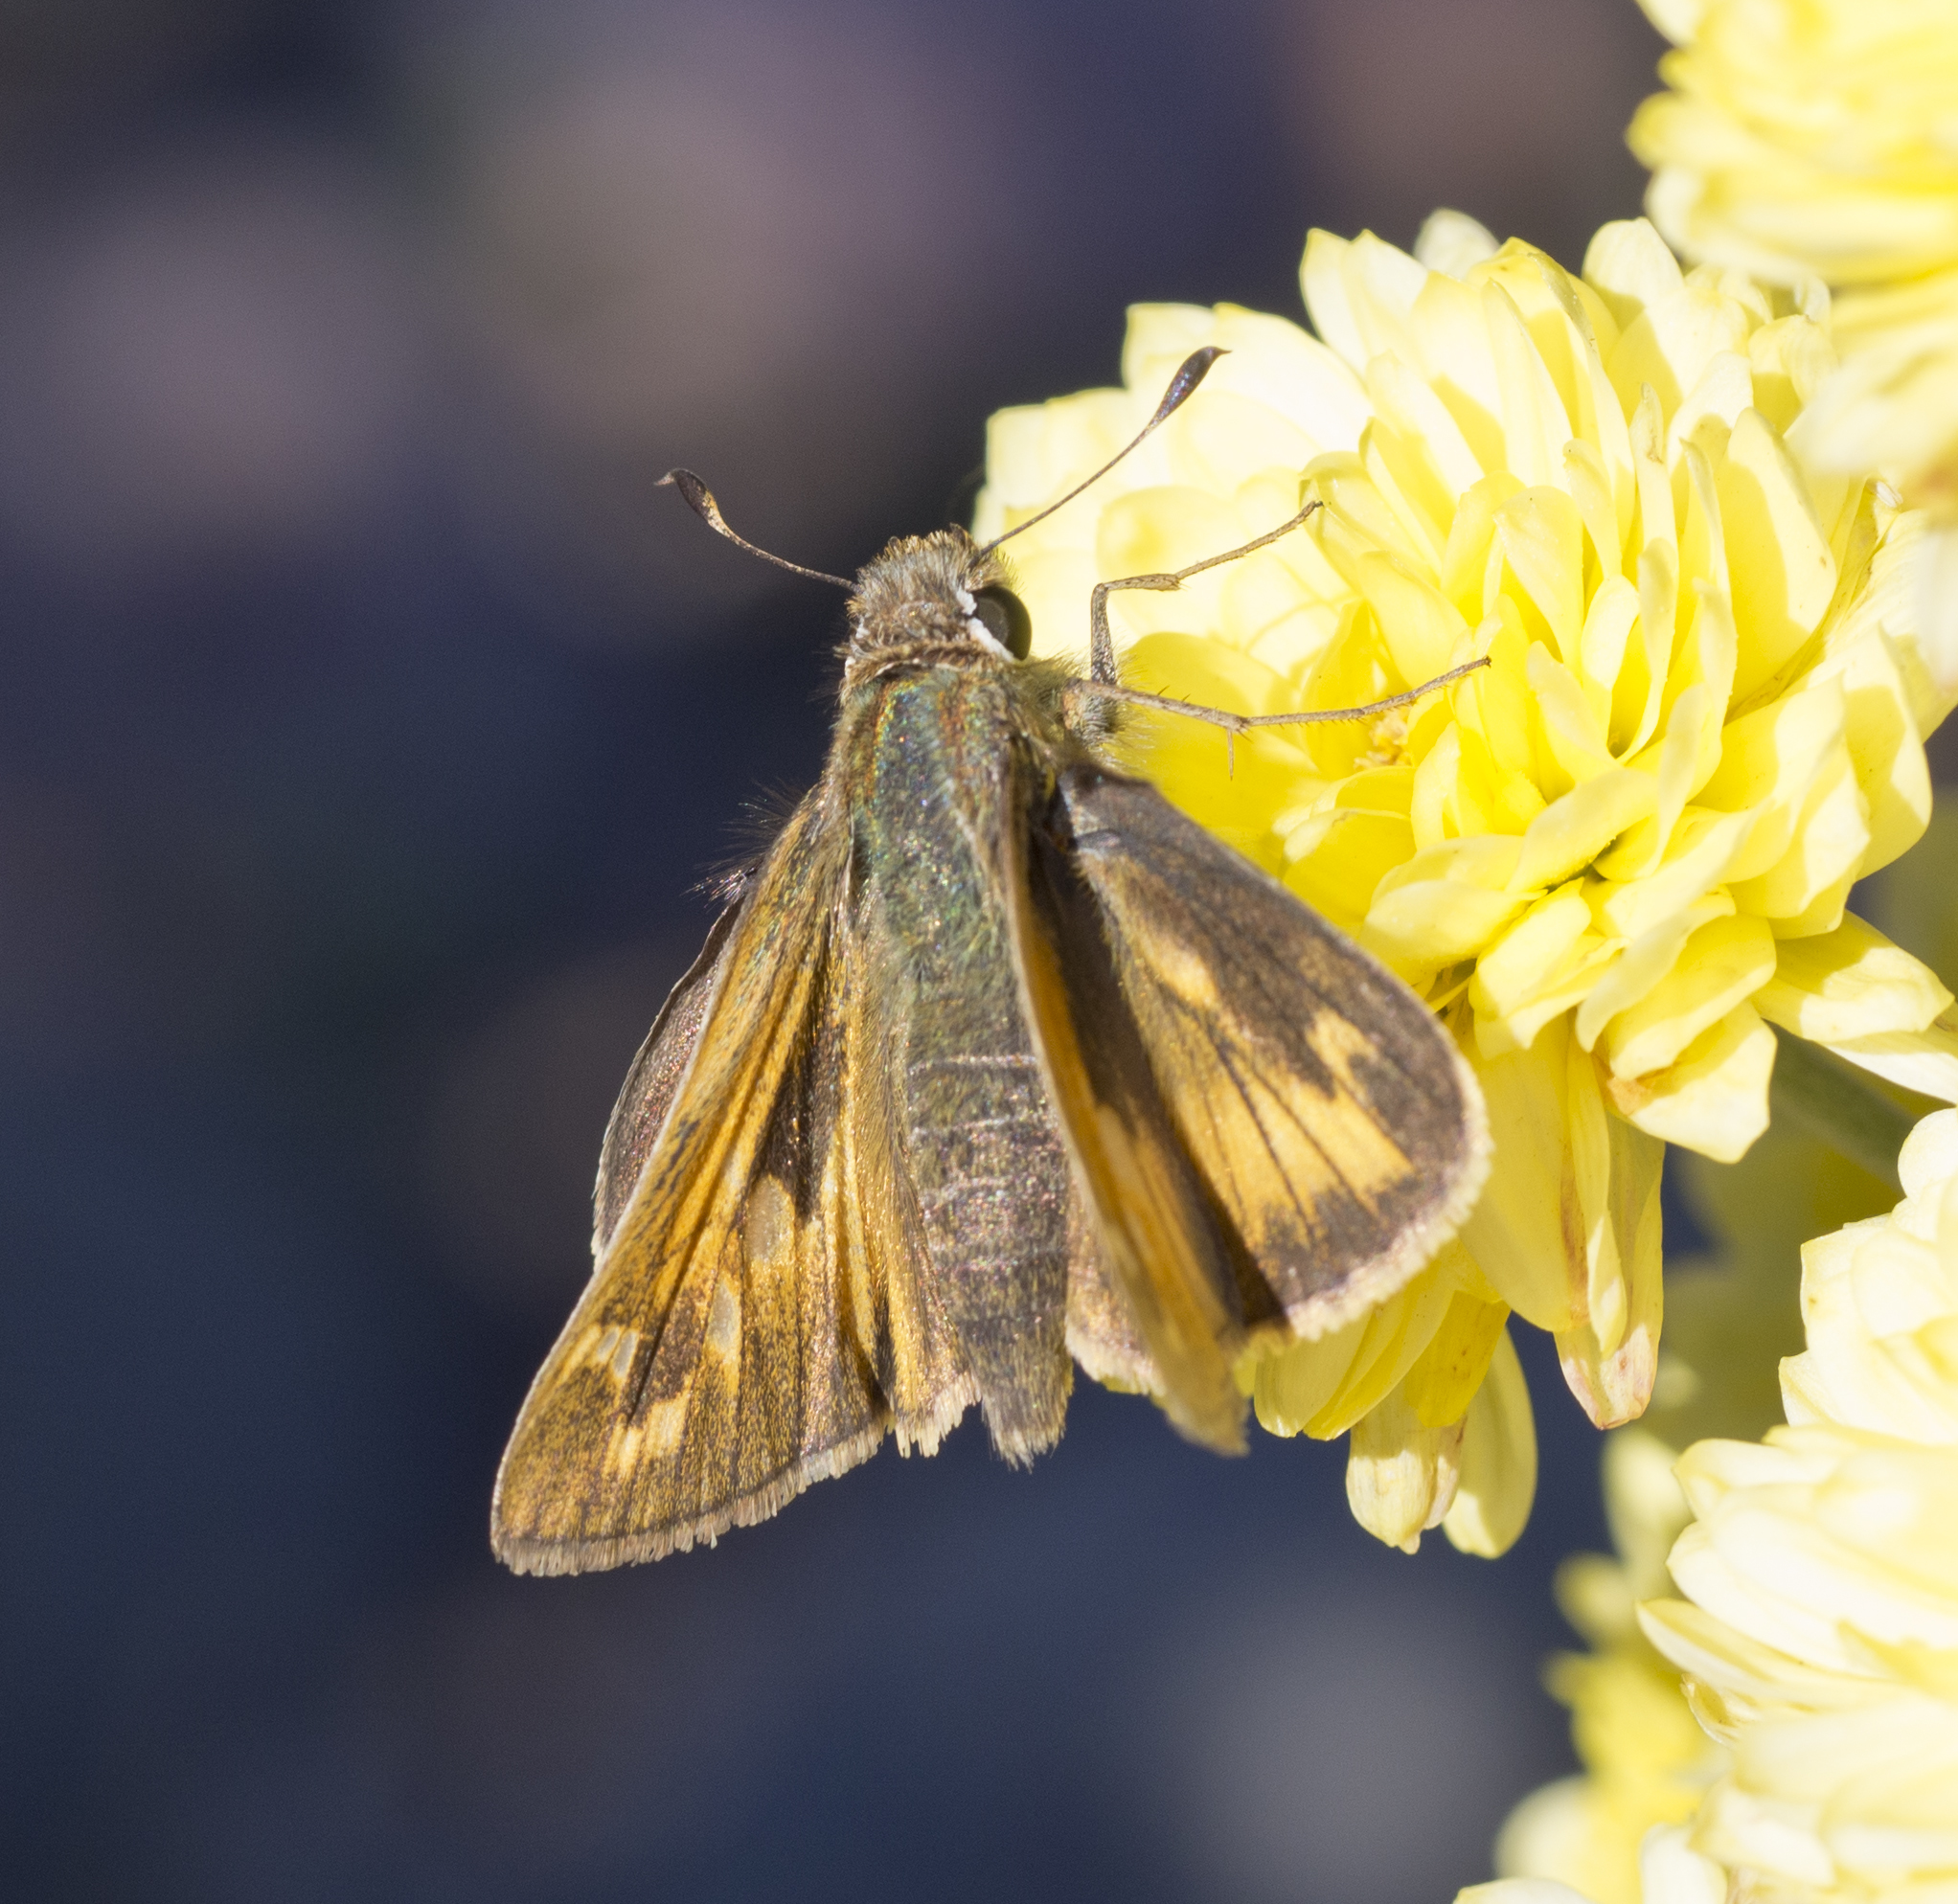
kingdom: Animalia
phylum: Arthropoda
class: Insecta
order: Lepidoptera
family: Hesperiidae
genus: Atalopedes
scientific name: Atalopedes
